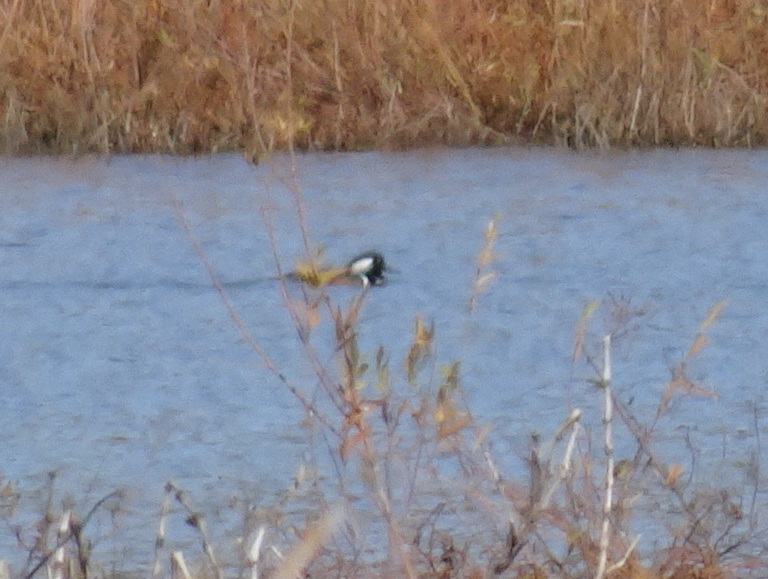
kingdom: Animalia
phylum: Chordata
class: Aves
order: Anseriformes
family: Anatidae
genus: Lophodytes
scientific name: Lophodytes cucullatus
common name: Hooded merganser
